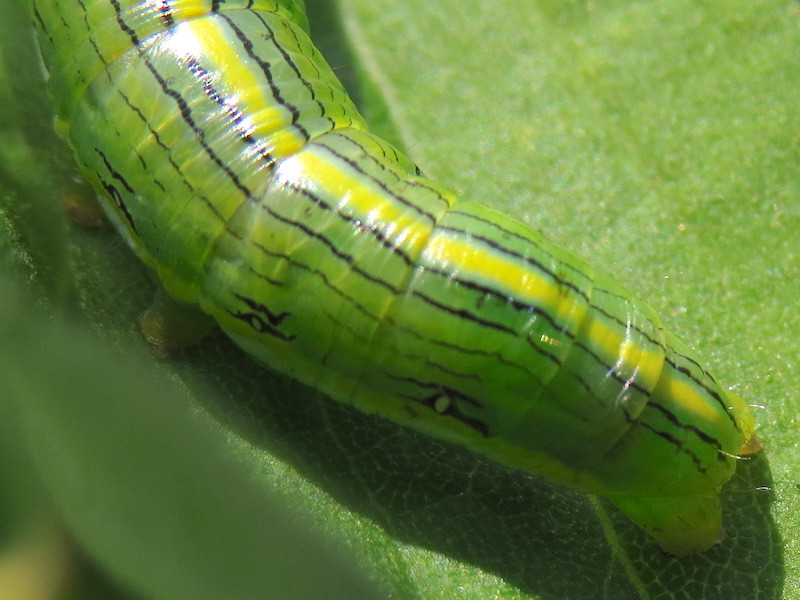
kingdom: Animalia
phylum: Arthropoda
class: Insecta
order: Lepidoptera
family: Noctuidae
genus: Cucullia
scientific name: Cucullia asteroides
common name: Asteroid moth
